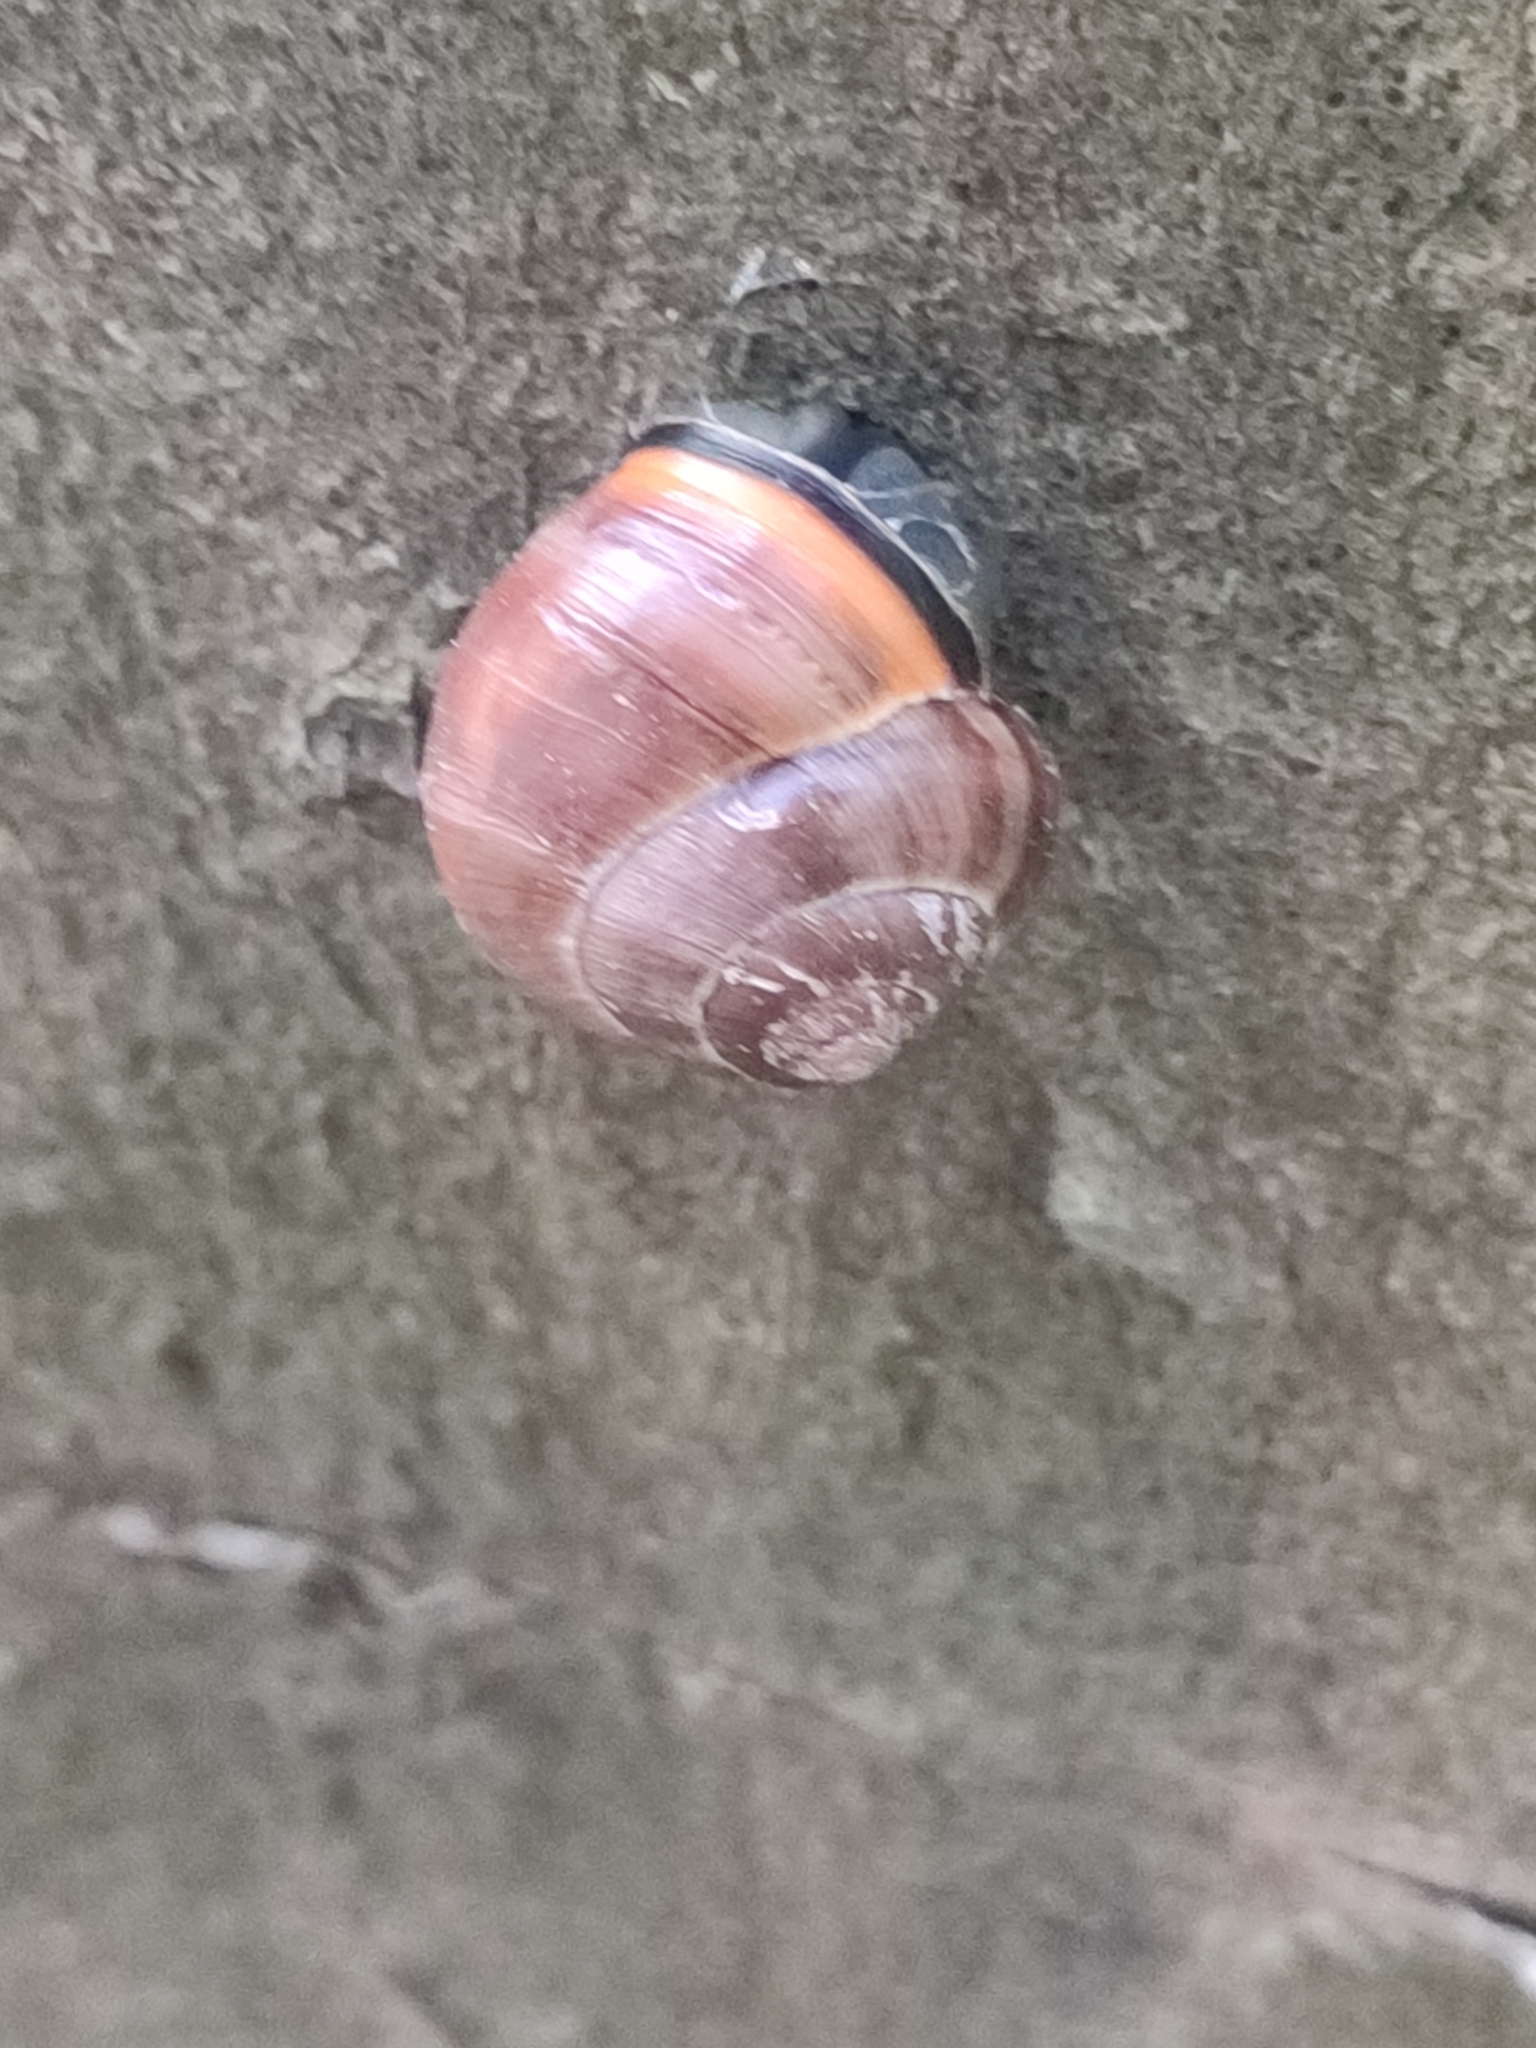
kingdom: Animalia
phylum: Mollusca
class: Gastropoda
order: Stylommatophora
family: Helicidae
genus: Cepaea
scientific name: Cepaea nemoralis
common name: Grovesnail
